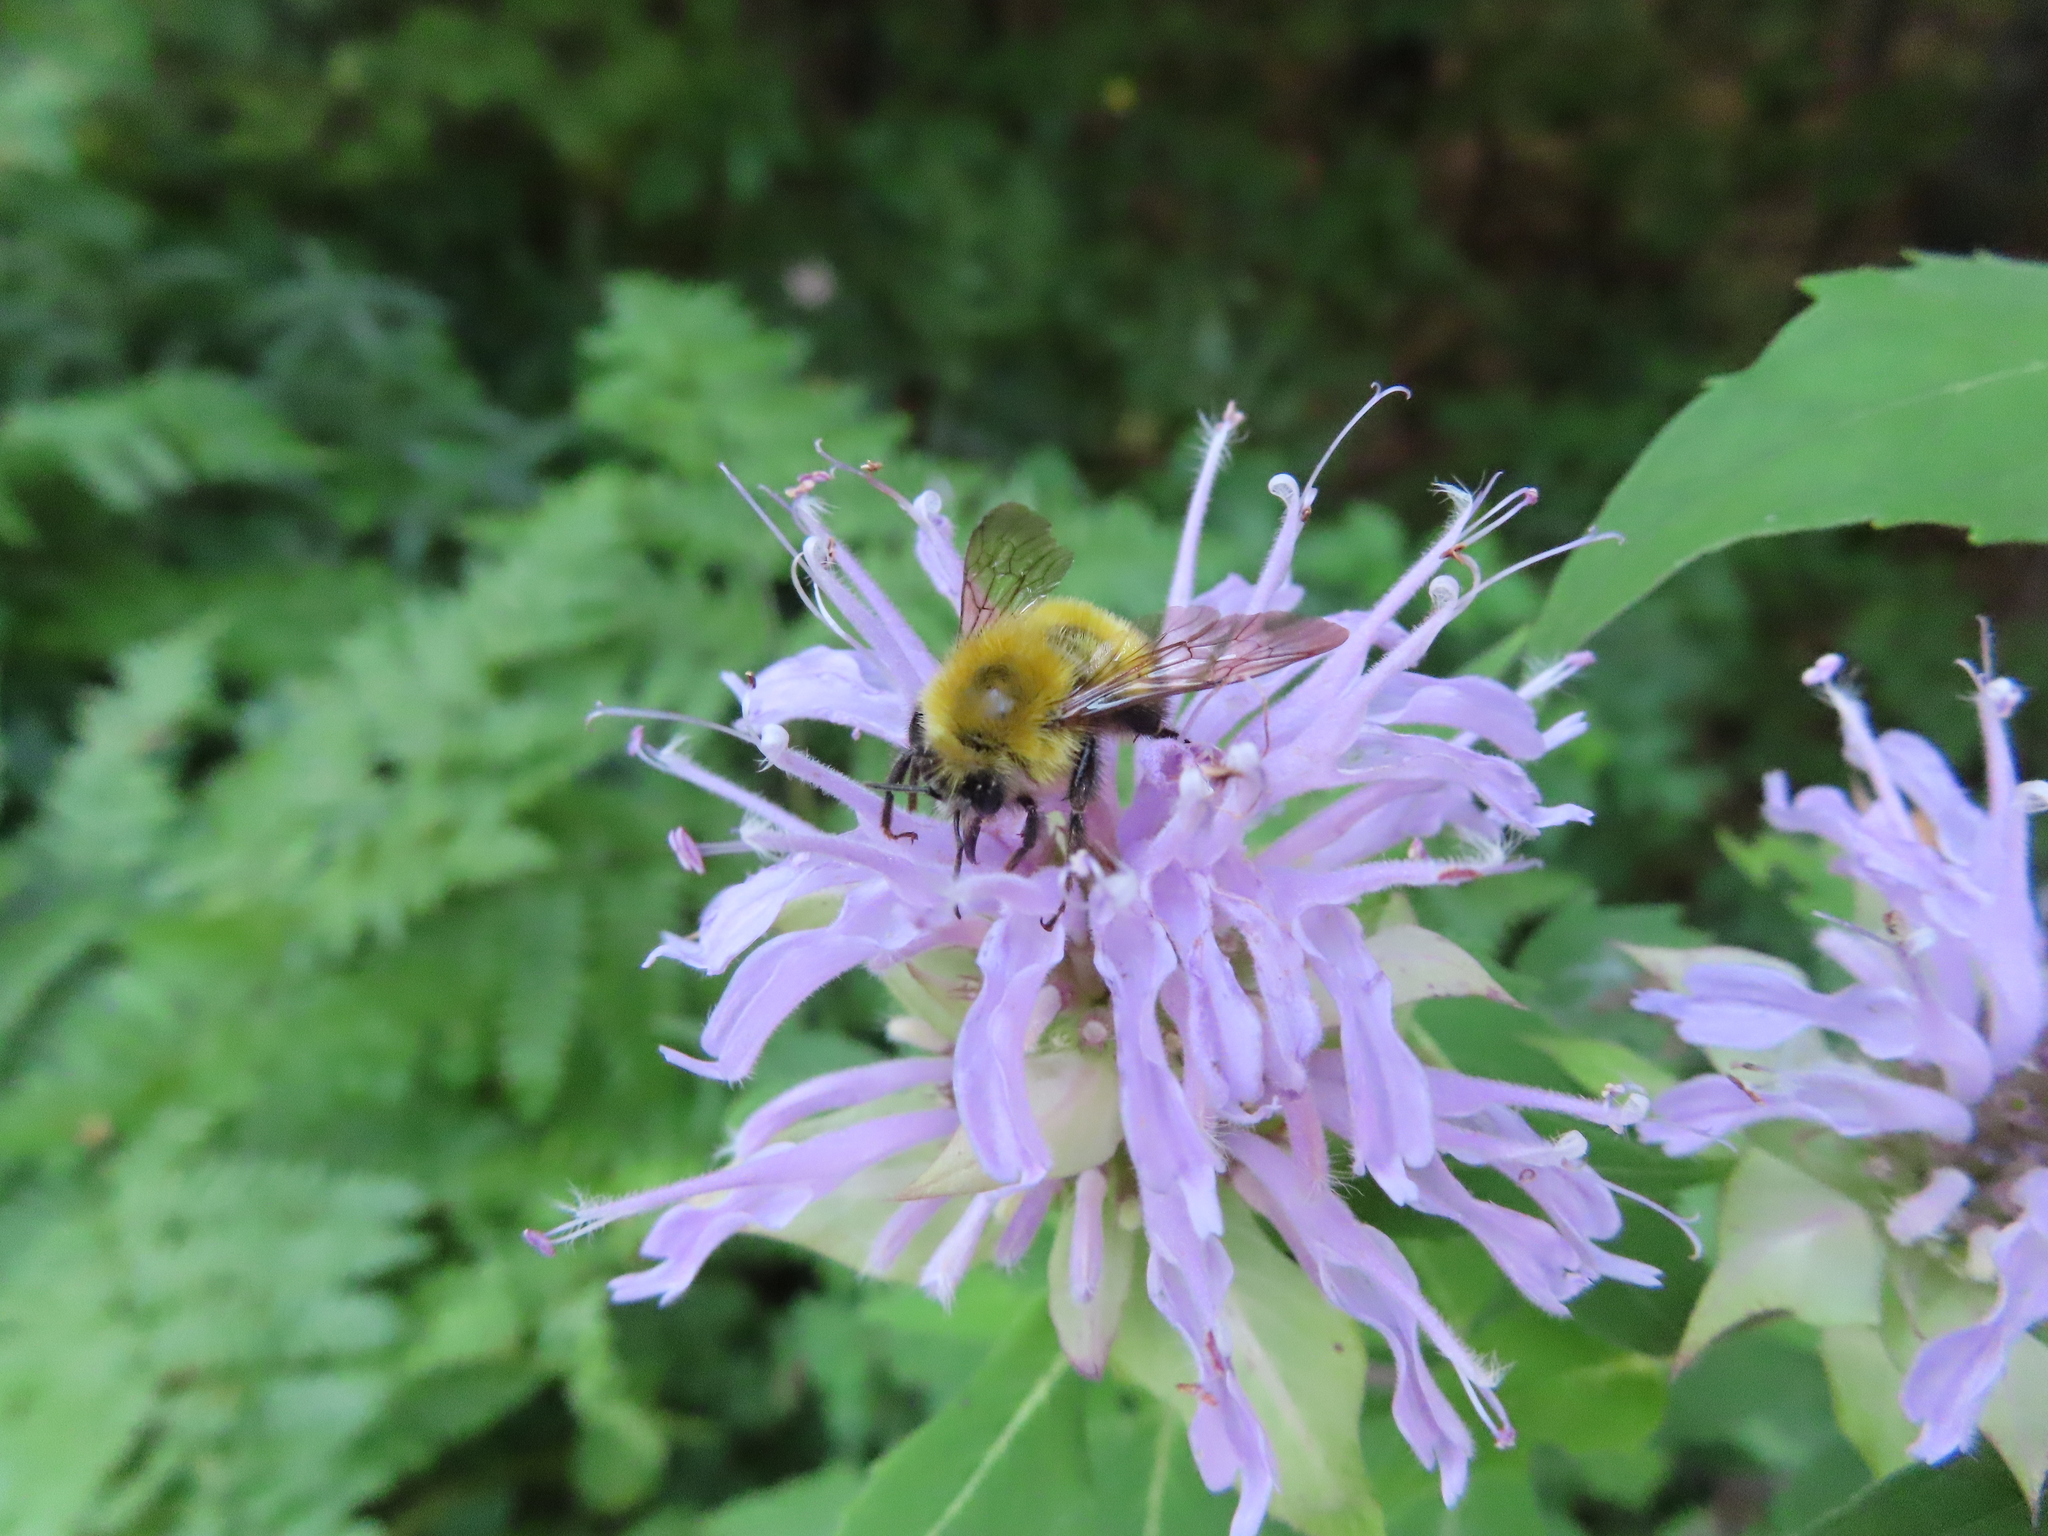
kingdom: Animalia
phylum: Arthropoda
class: Insecta
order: Hymenoptera
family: Apidae
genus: Bombus
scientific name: Bombus perplexus
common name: Confusing bumble bee
